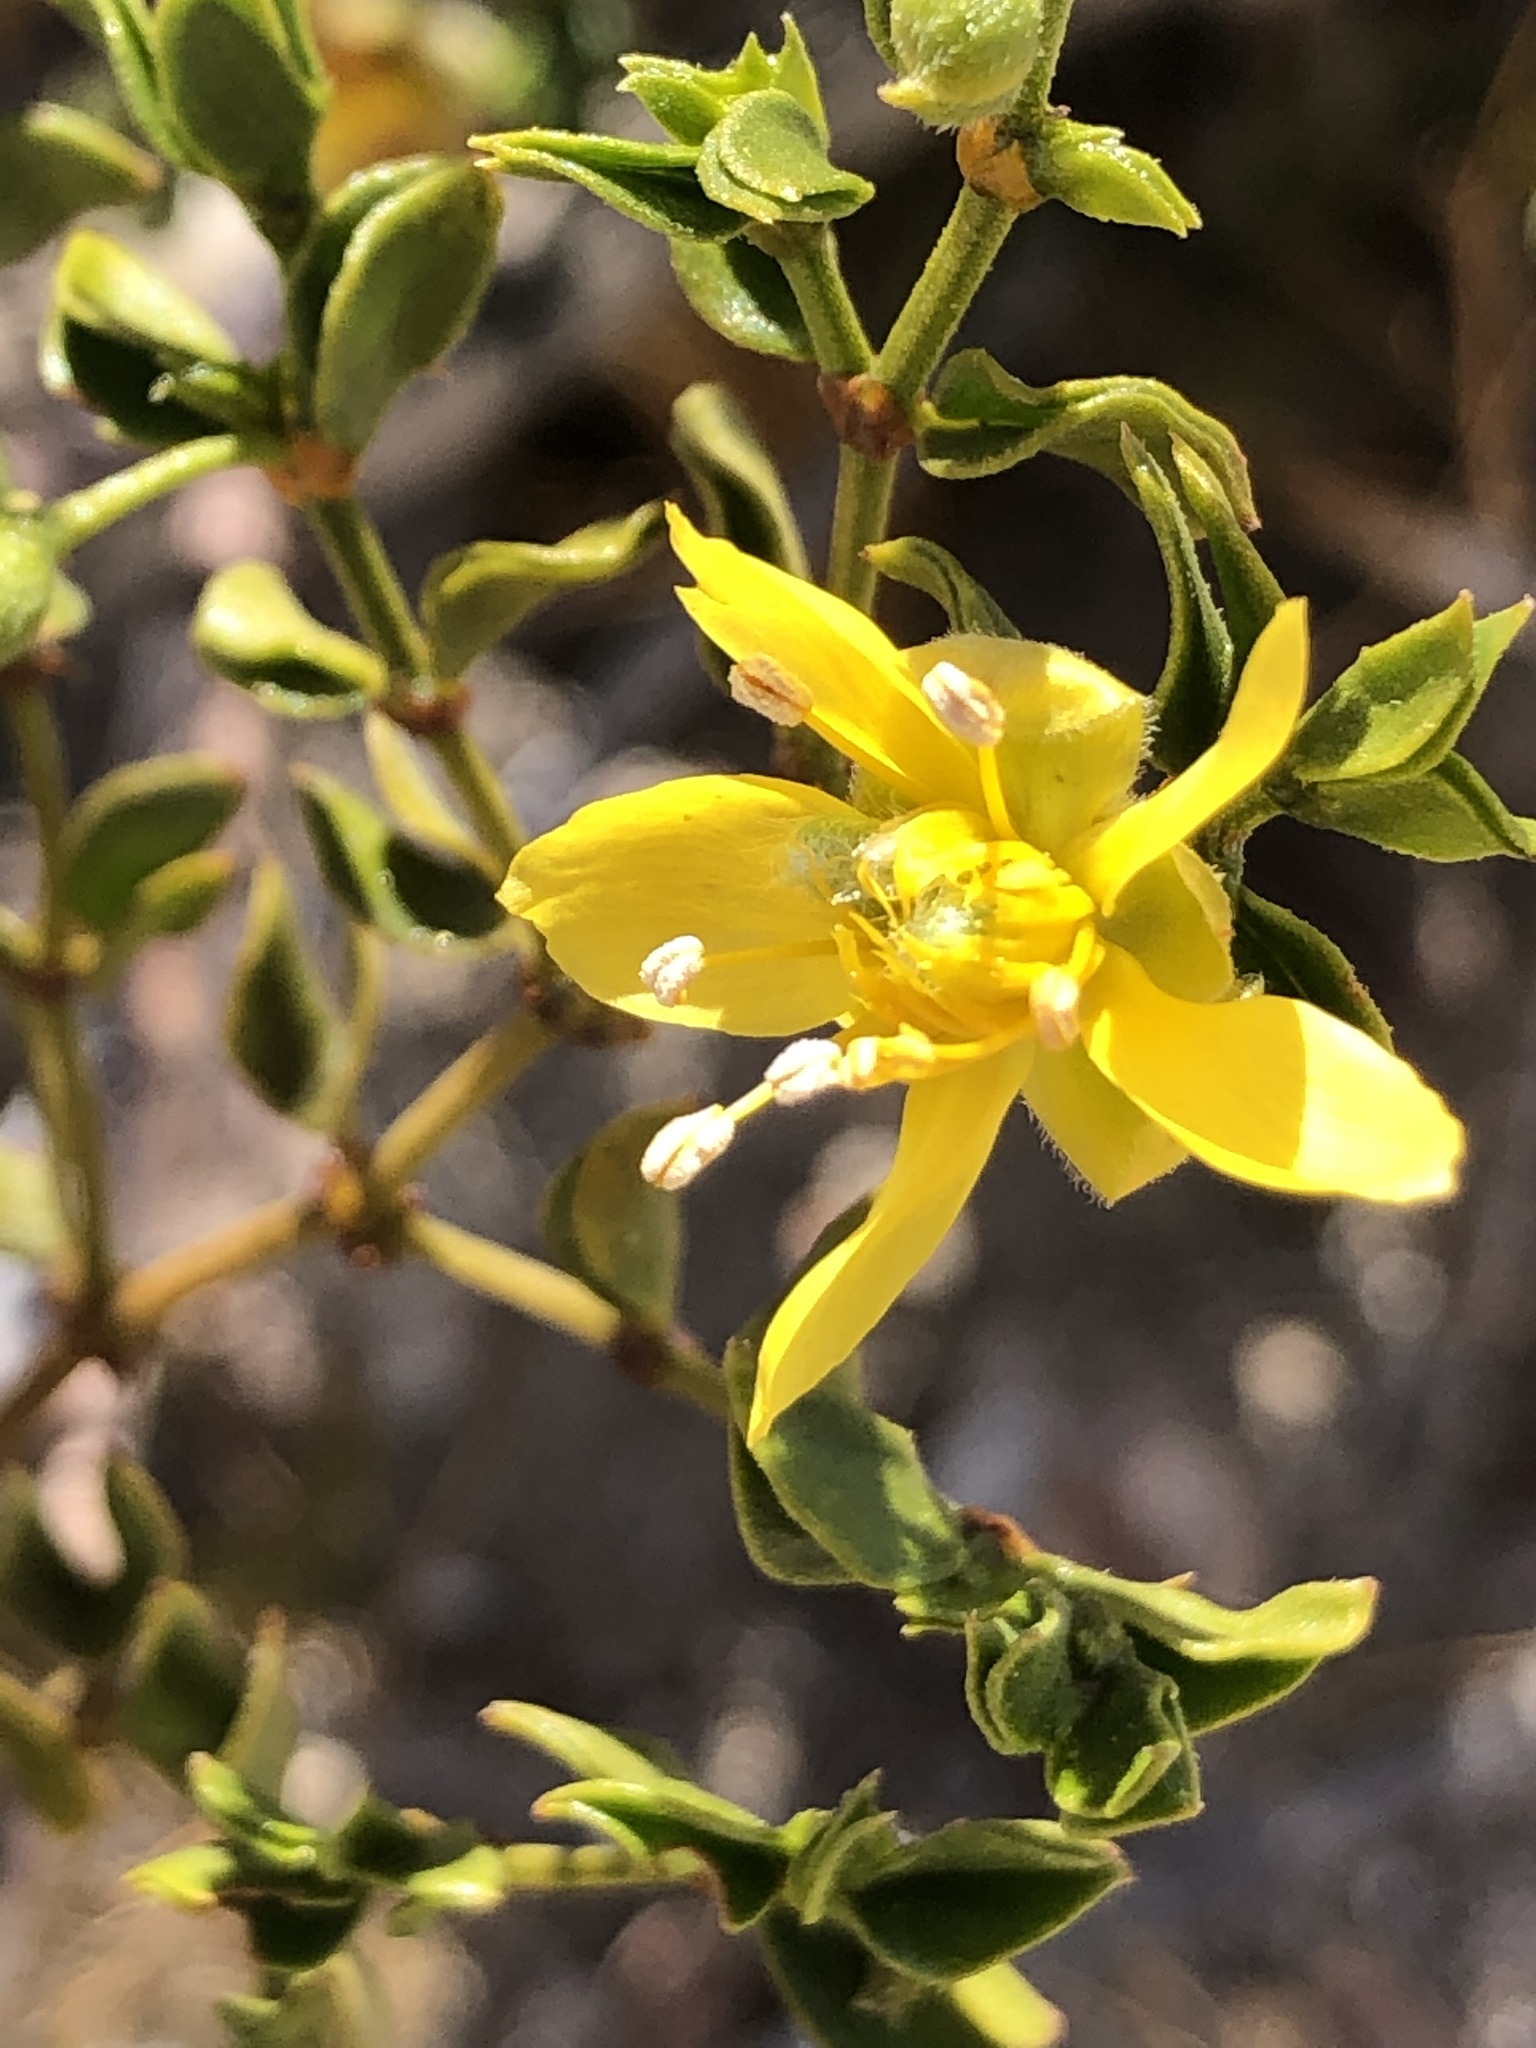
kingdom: Plantae
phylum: Tracheophyta
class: Magnoliopsida
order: Zygophyllales
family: Zygophyllaceae
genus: Larrea
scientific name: Larrea tridentata
